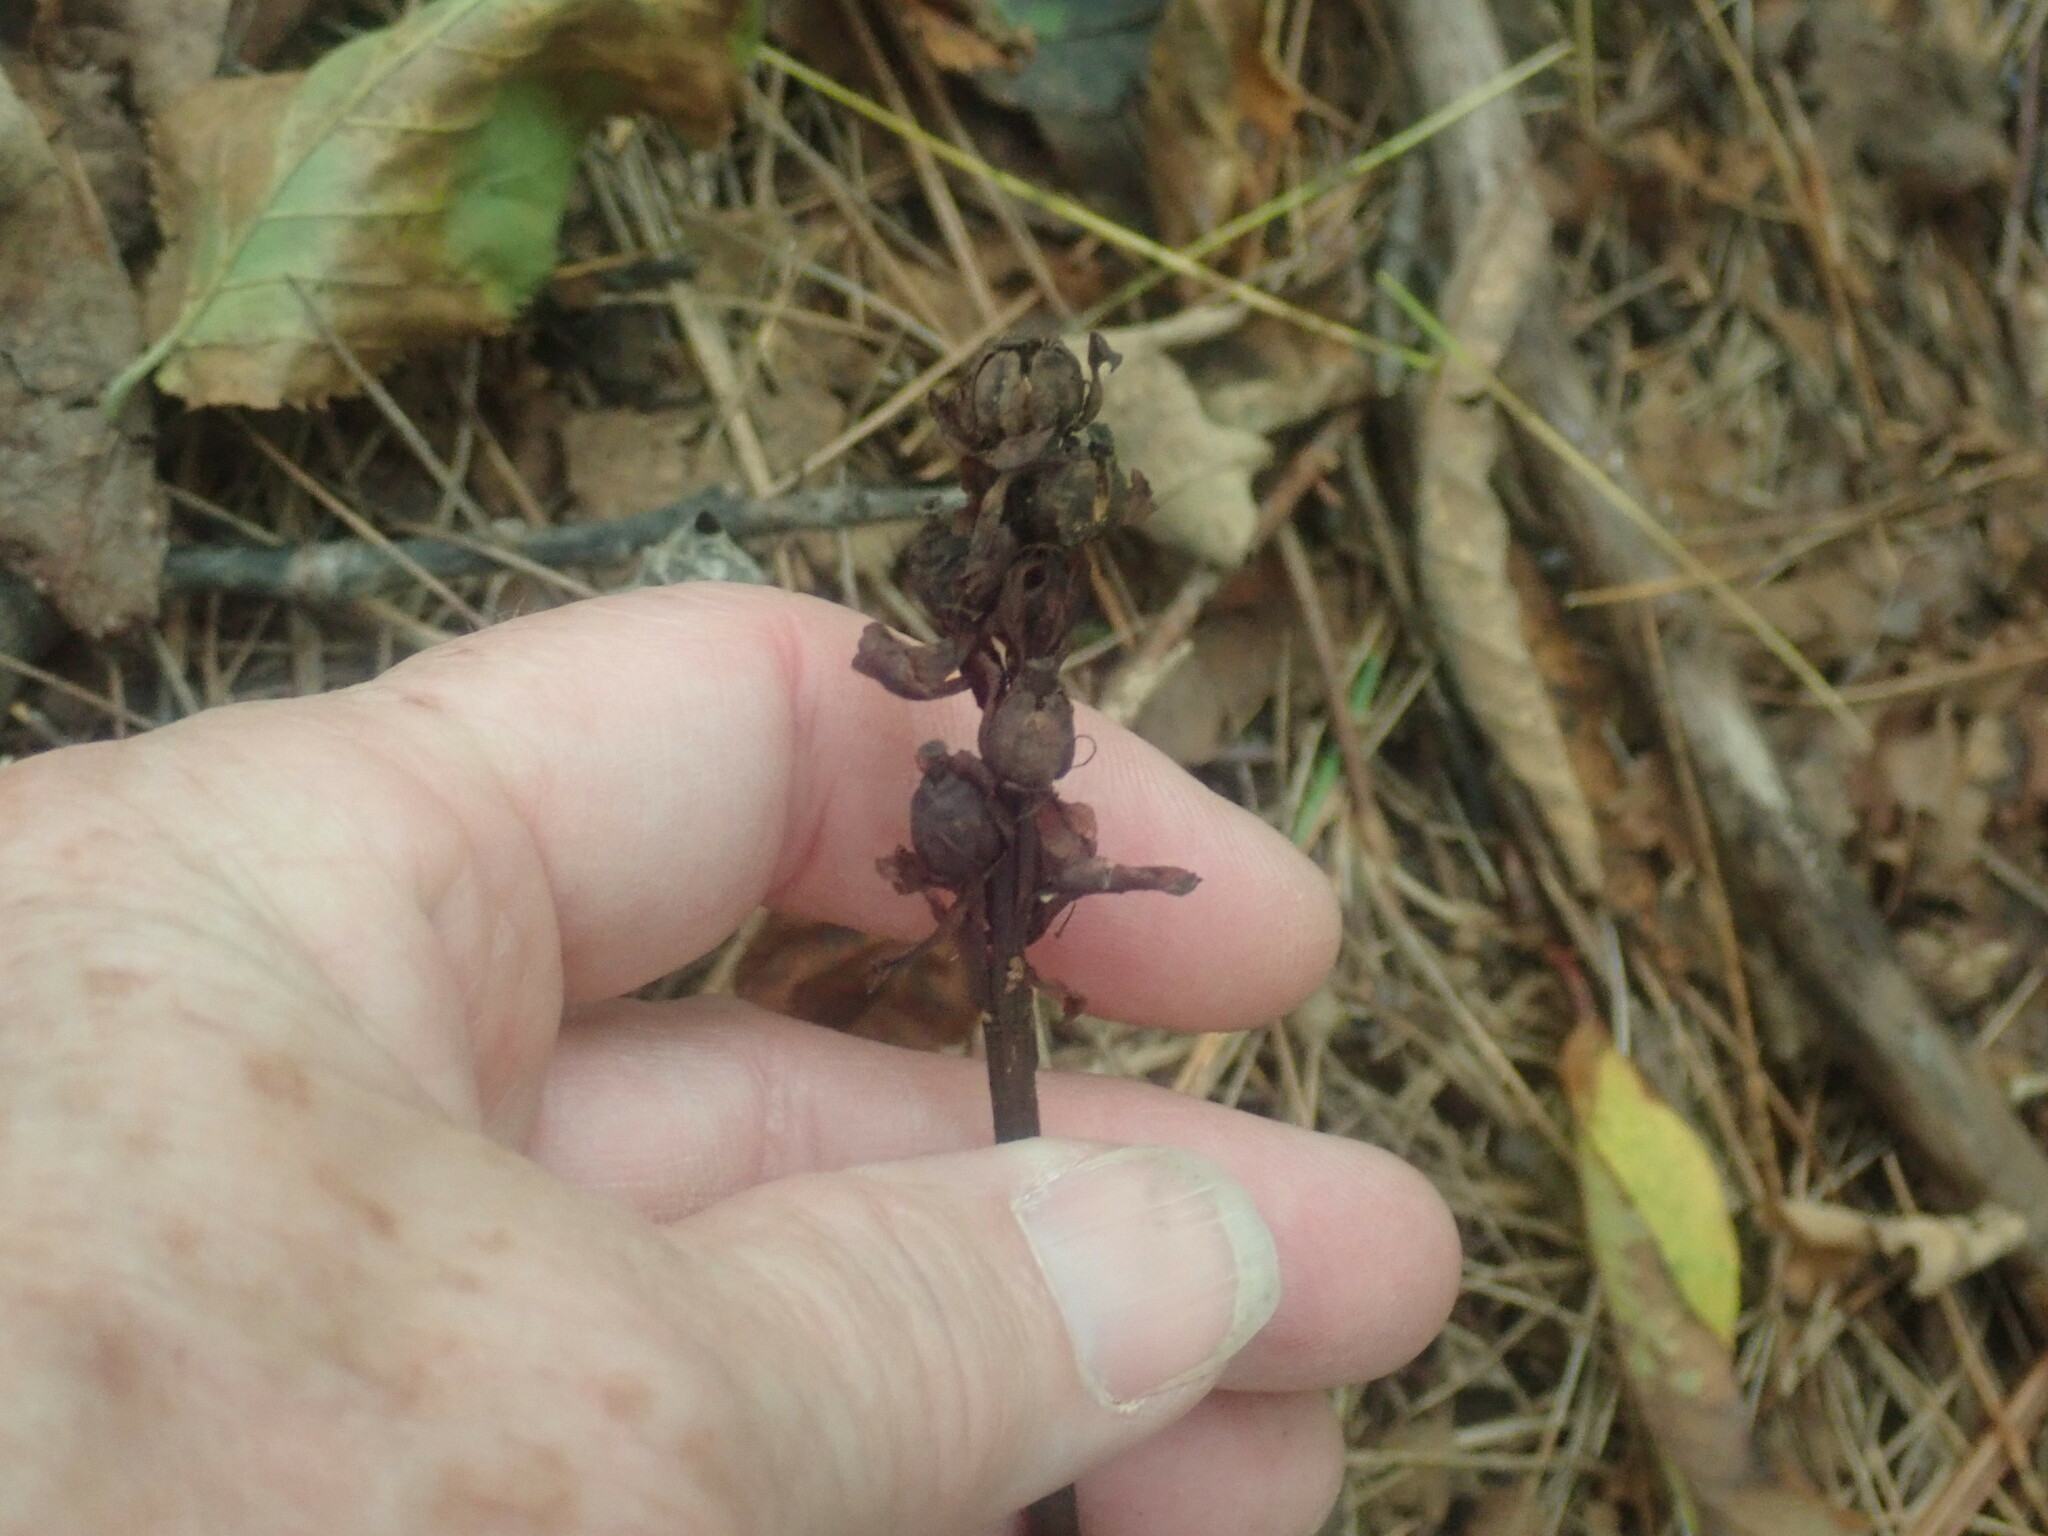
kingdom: Plantae
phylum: Tracheophyta
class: Magnoliopsida
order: Ericales
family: Ericaceae
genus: Hypopitys
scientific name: Hypopitys monotropa
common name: Yellow bird's-nest
